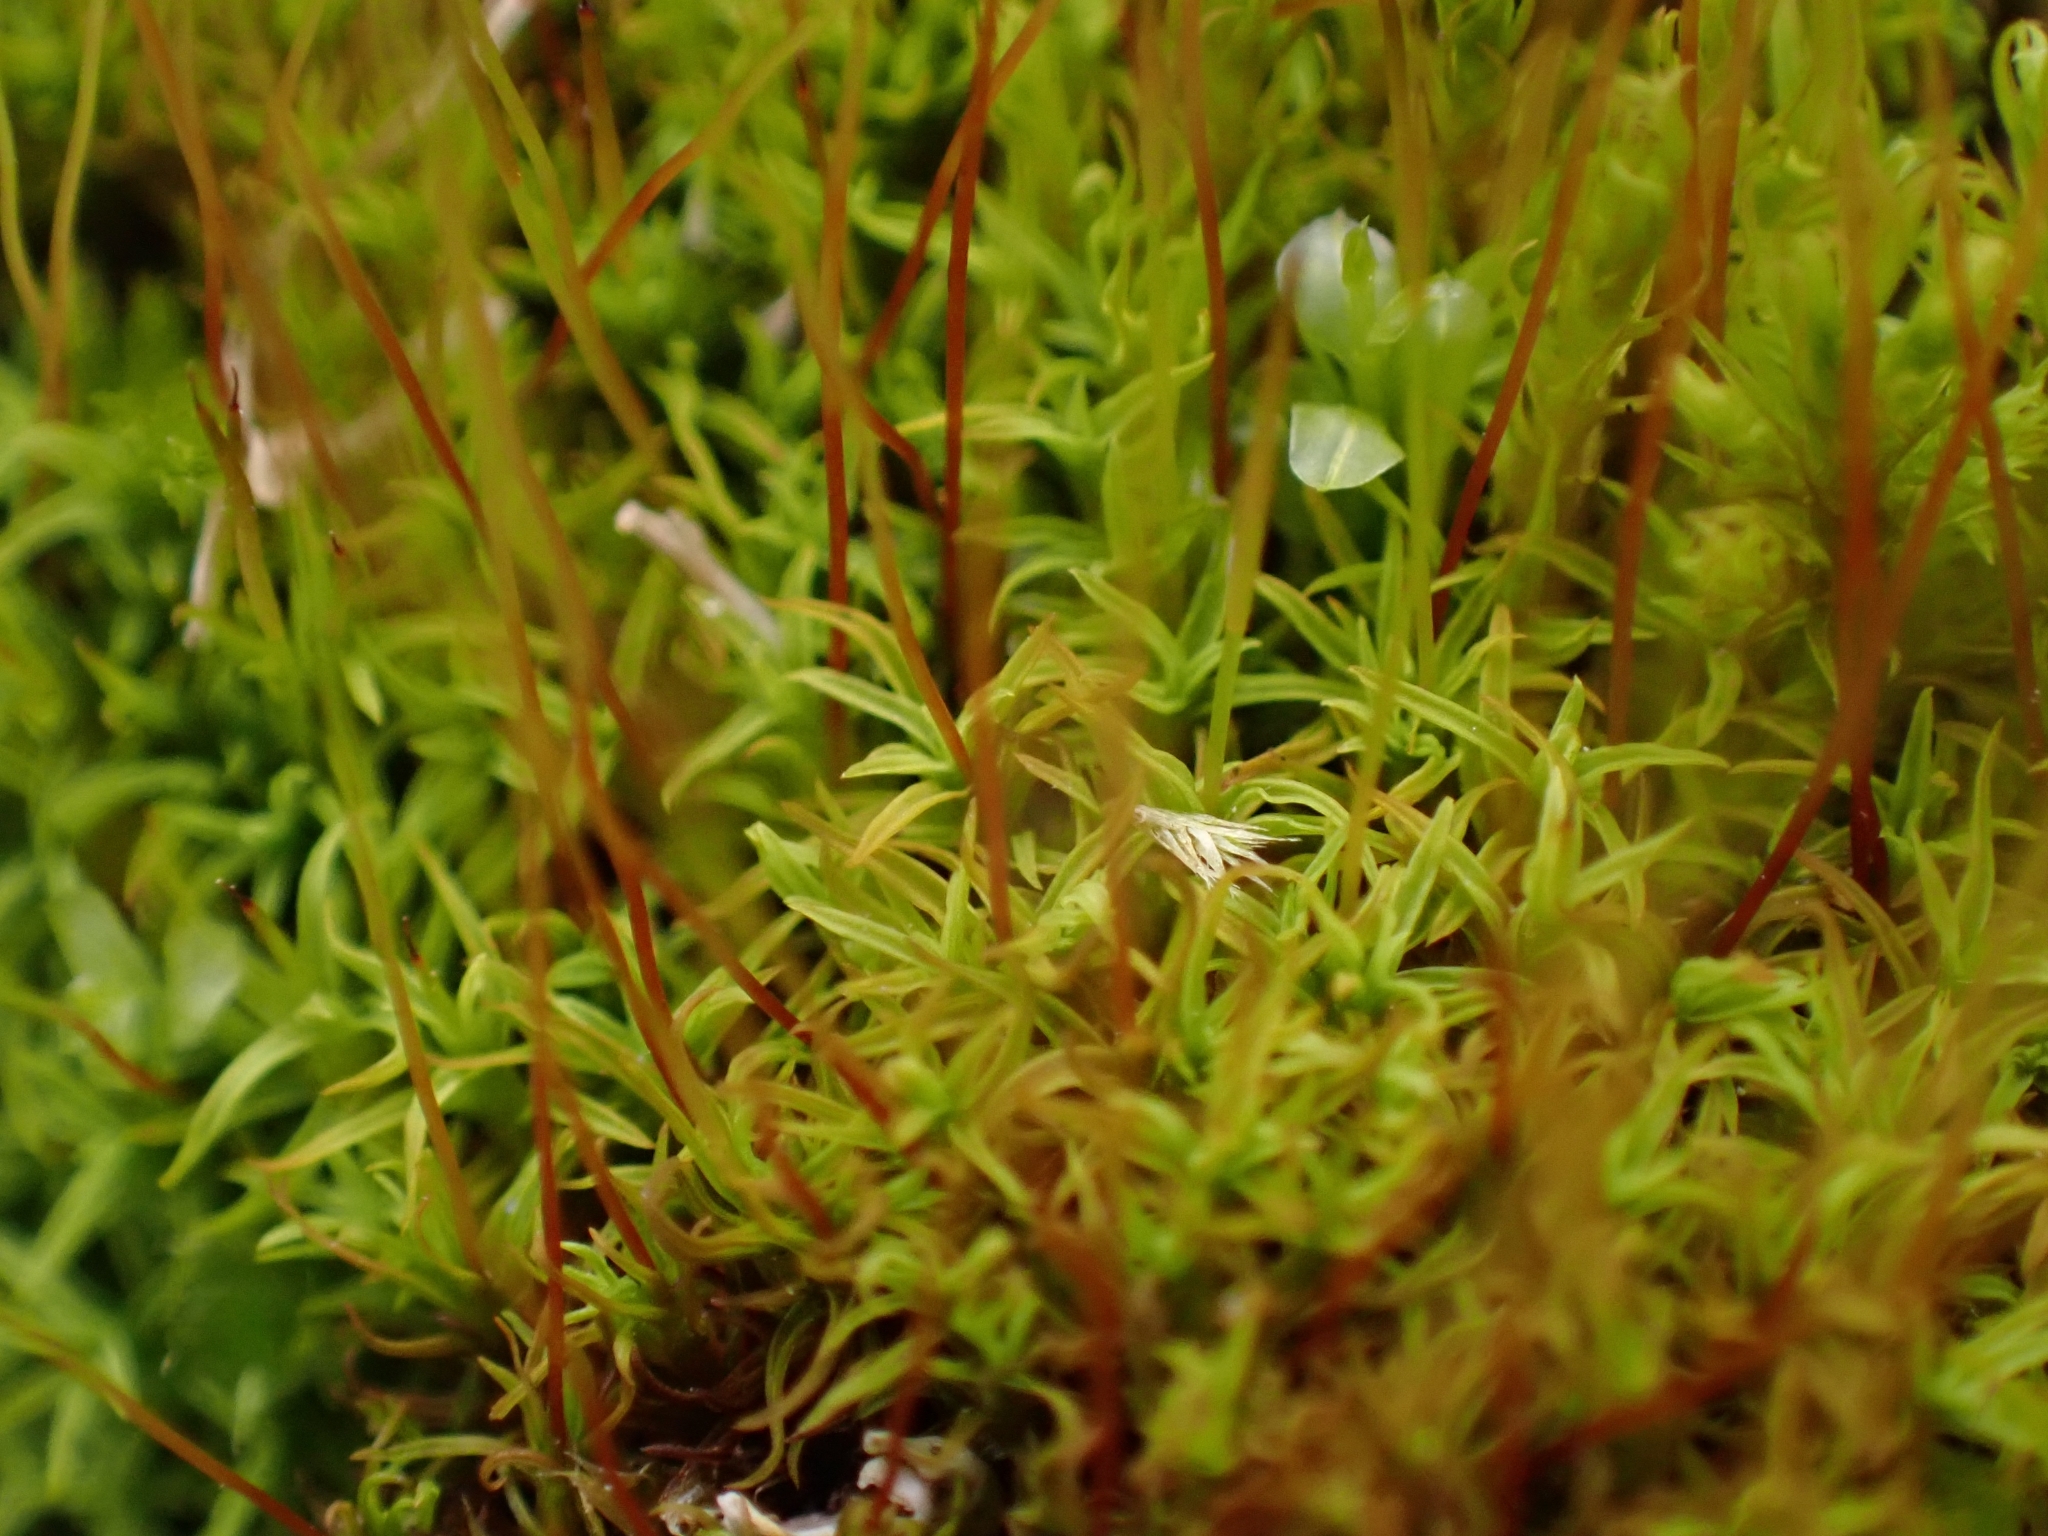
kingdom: Plantae
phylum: Bryophyta
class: Bryopsida
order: Pottiales
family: Pottiaceae
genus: Bryoerythrophyllum
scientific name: Bryoerythrophyllum recurvirostrum
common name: Red beard moss
